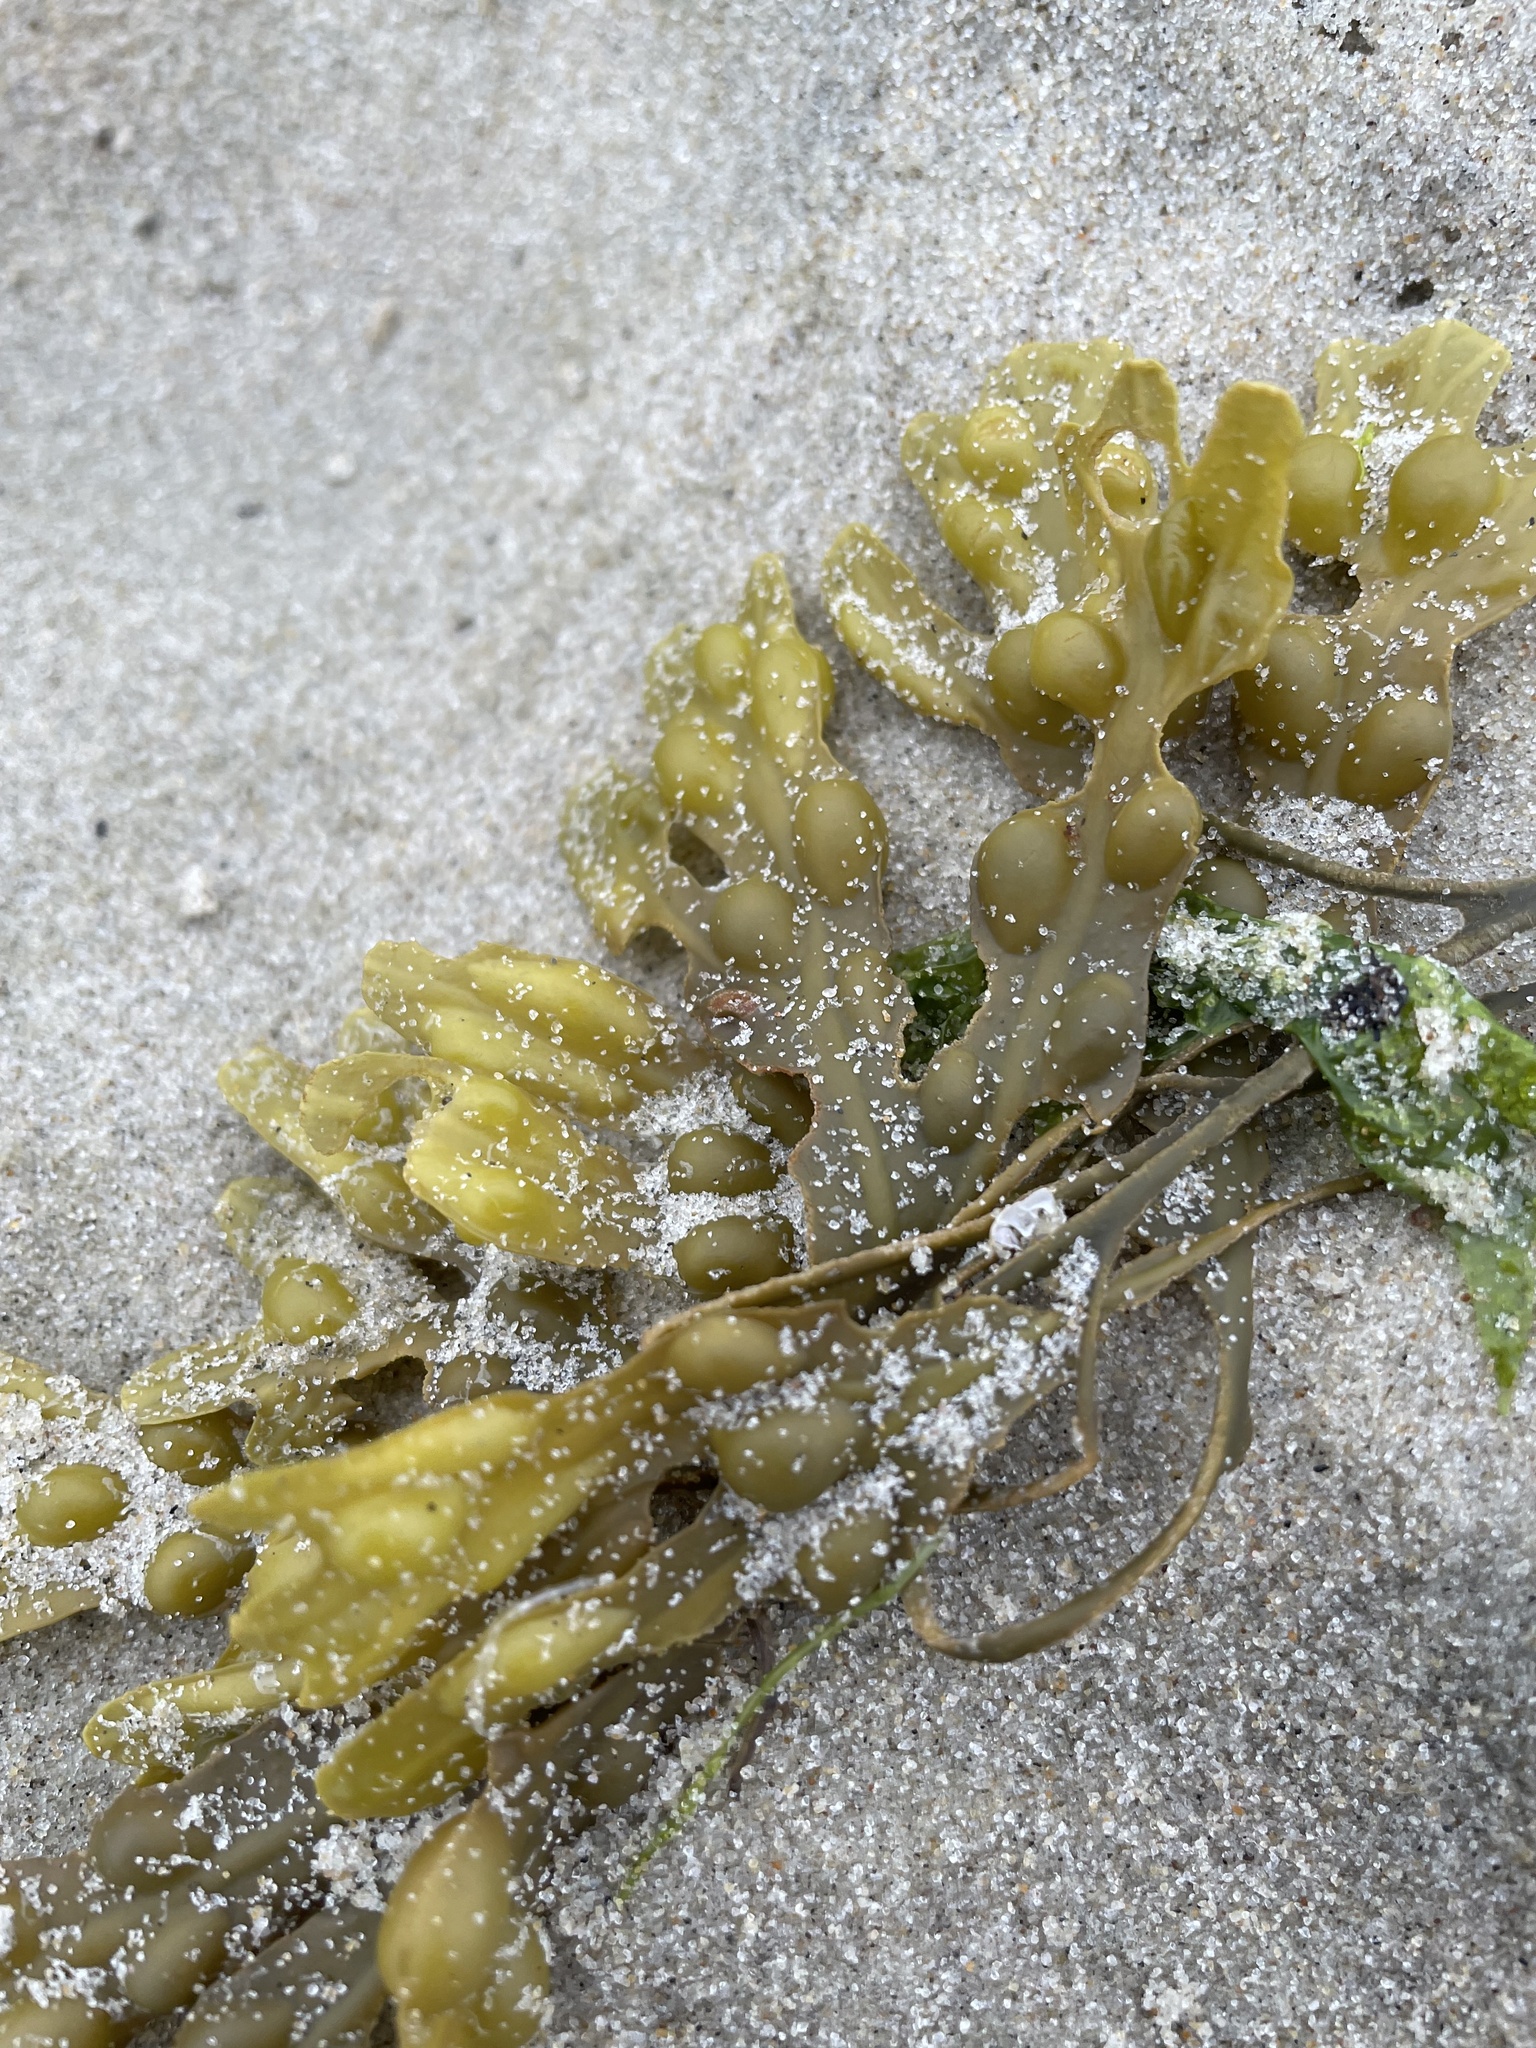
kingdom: Chromista
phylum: Ochrophyta
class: Phaeophyceae
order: Fucales
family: Fucaceae
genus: Fucus
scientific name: Fucus vesiculosus
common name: Bladder wrack
